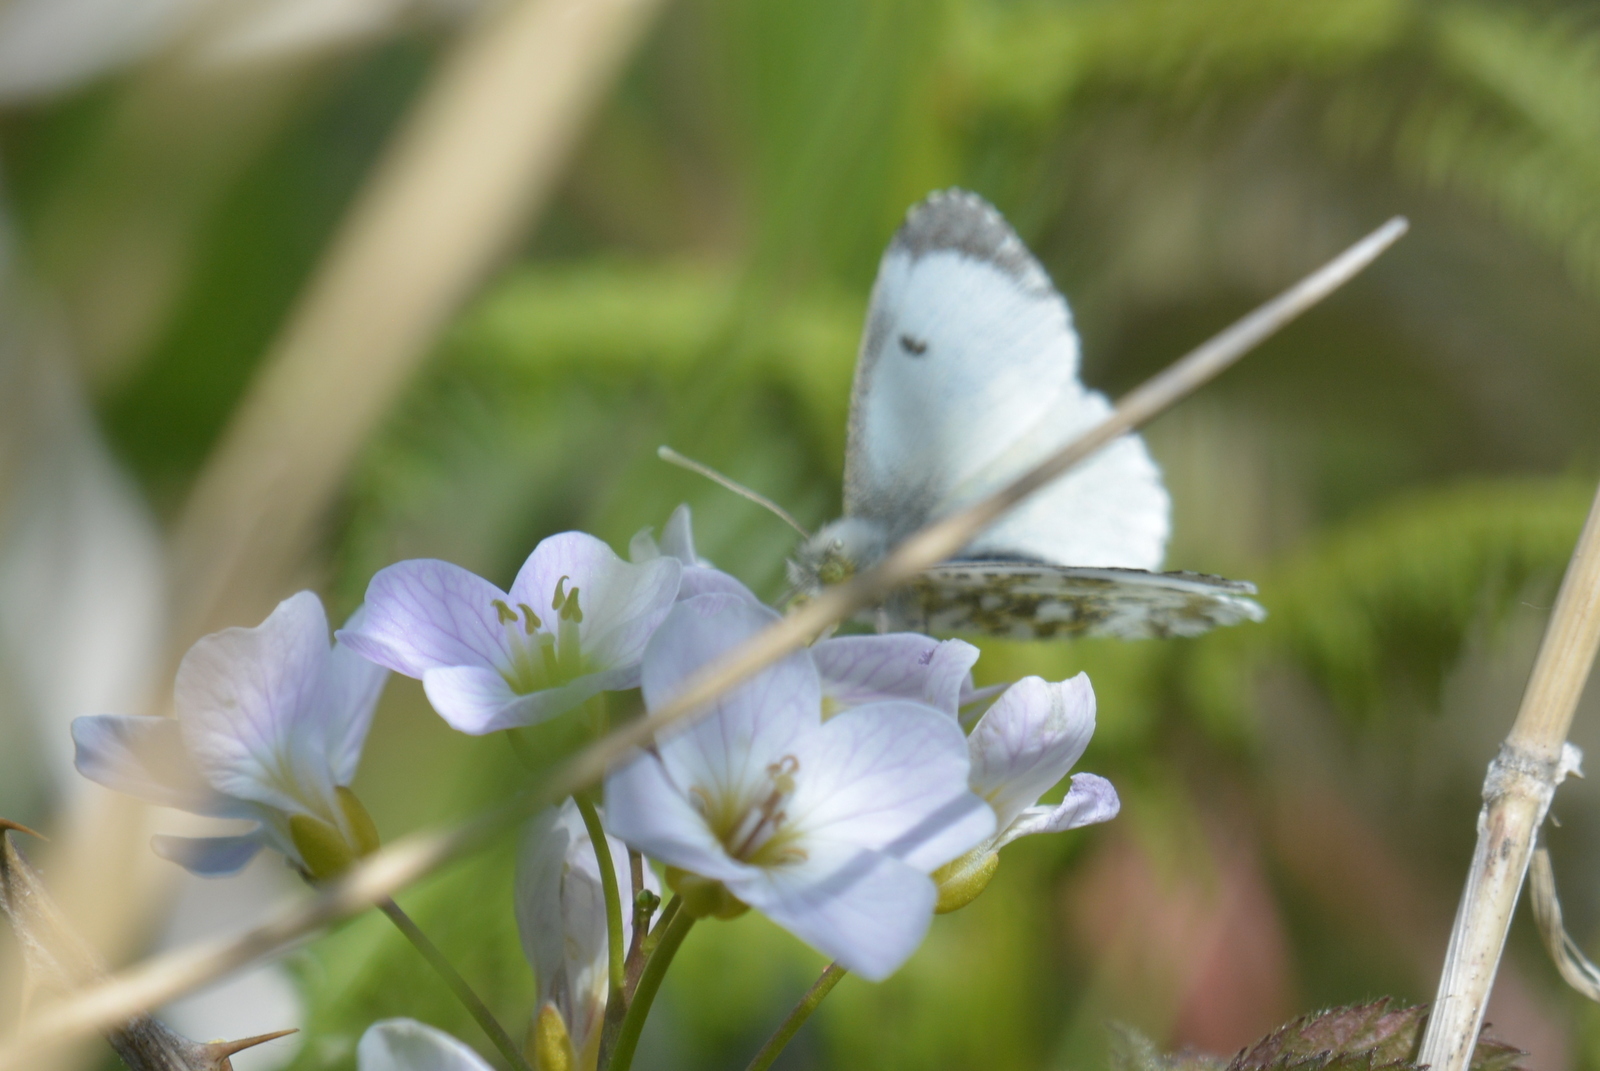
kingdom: Animalia
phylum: Arthropoda
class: Insecta
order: Lepidoptera
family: Pieridae
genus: Anthocharis
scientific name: Anthocharis cardamines
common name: Orange-tip
